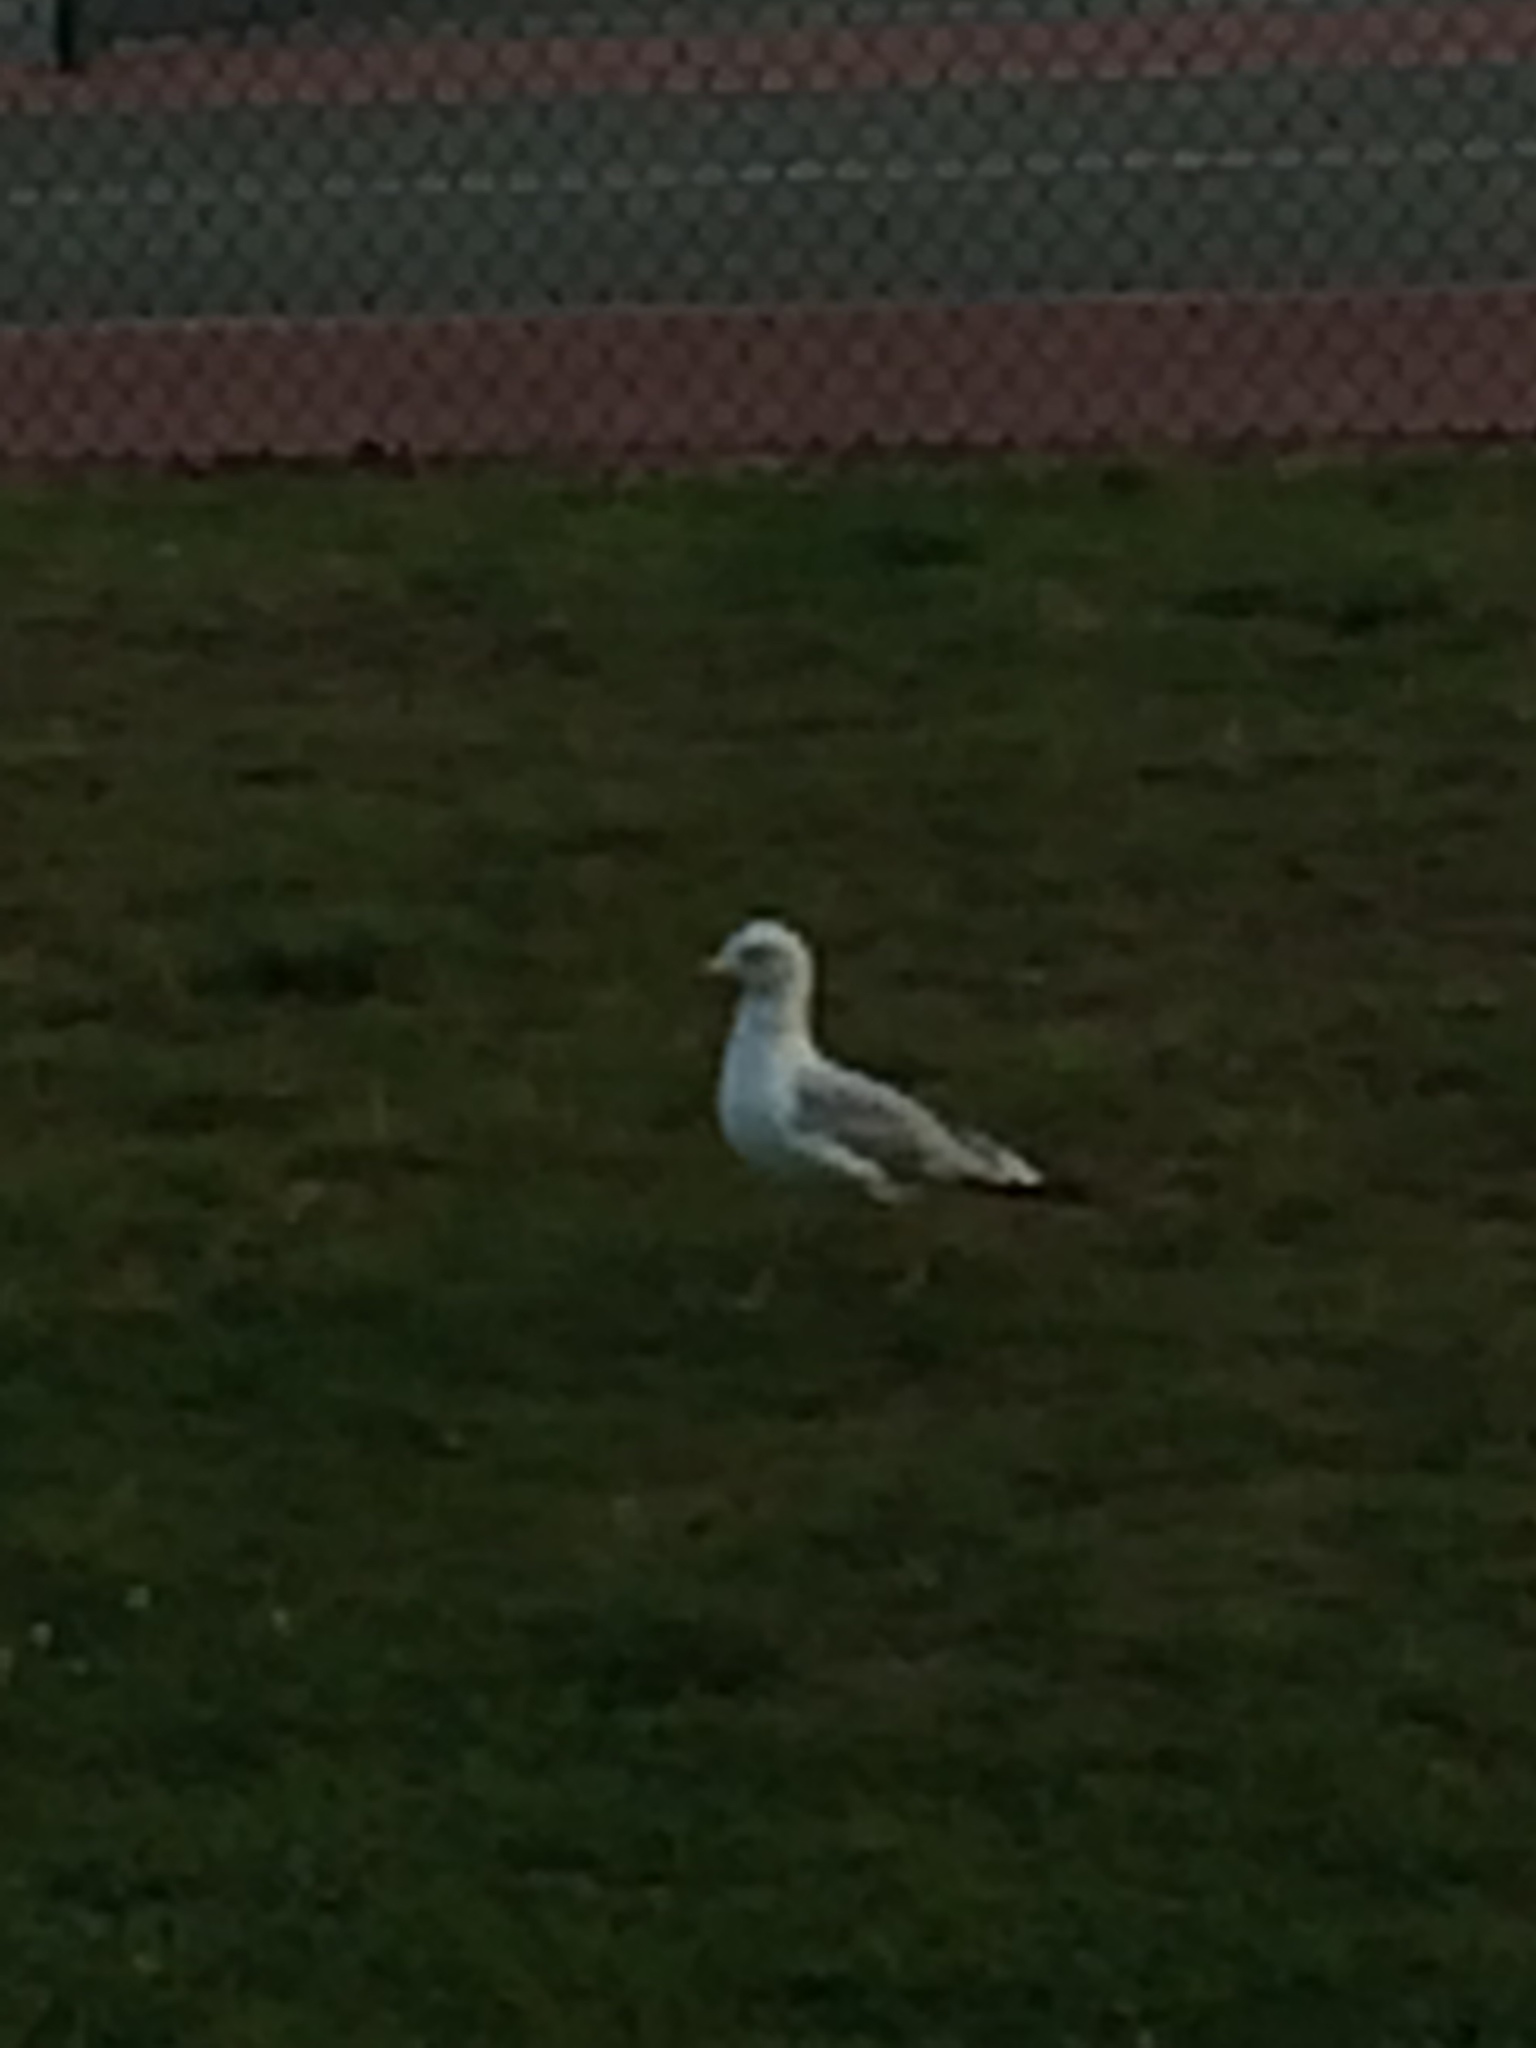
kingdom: Animalia
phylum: Chordata
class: Aves
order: Charadriiformes
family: Laridae
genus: Larus
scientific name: Larus delawarensis
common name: Ring-billed gull
